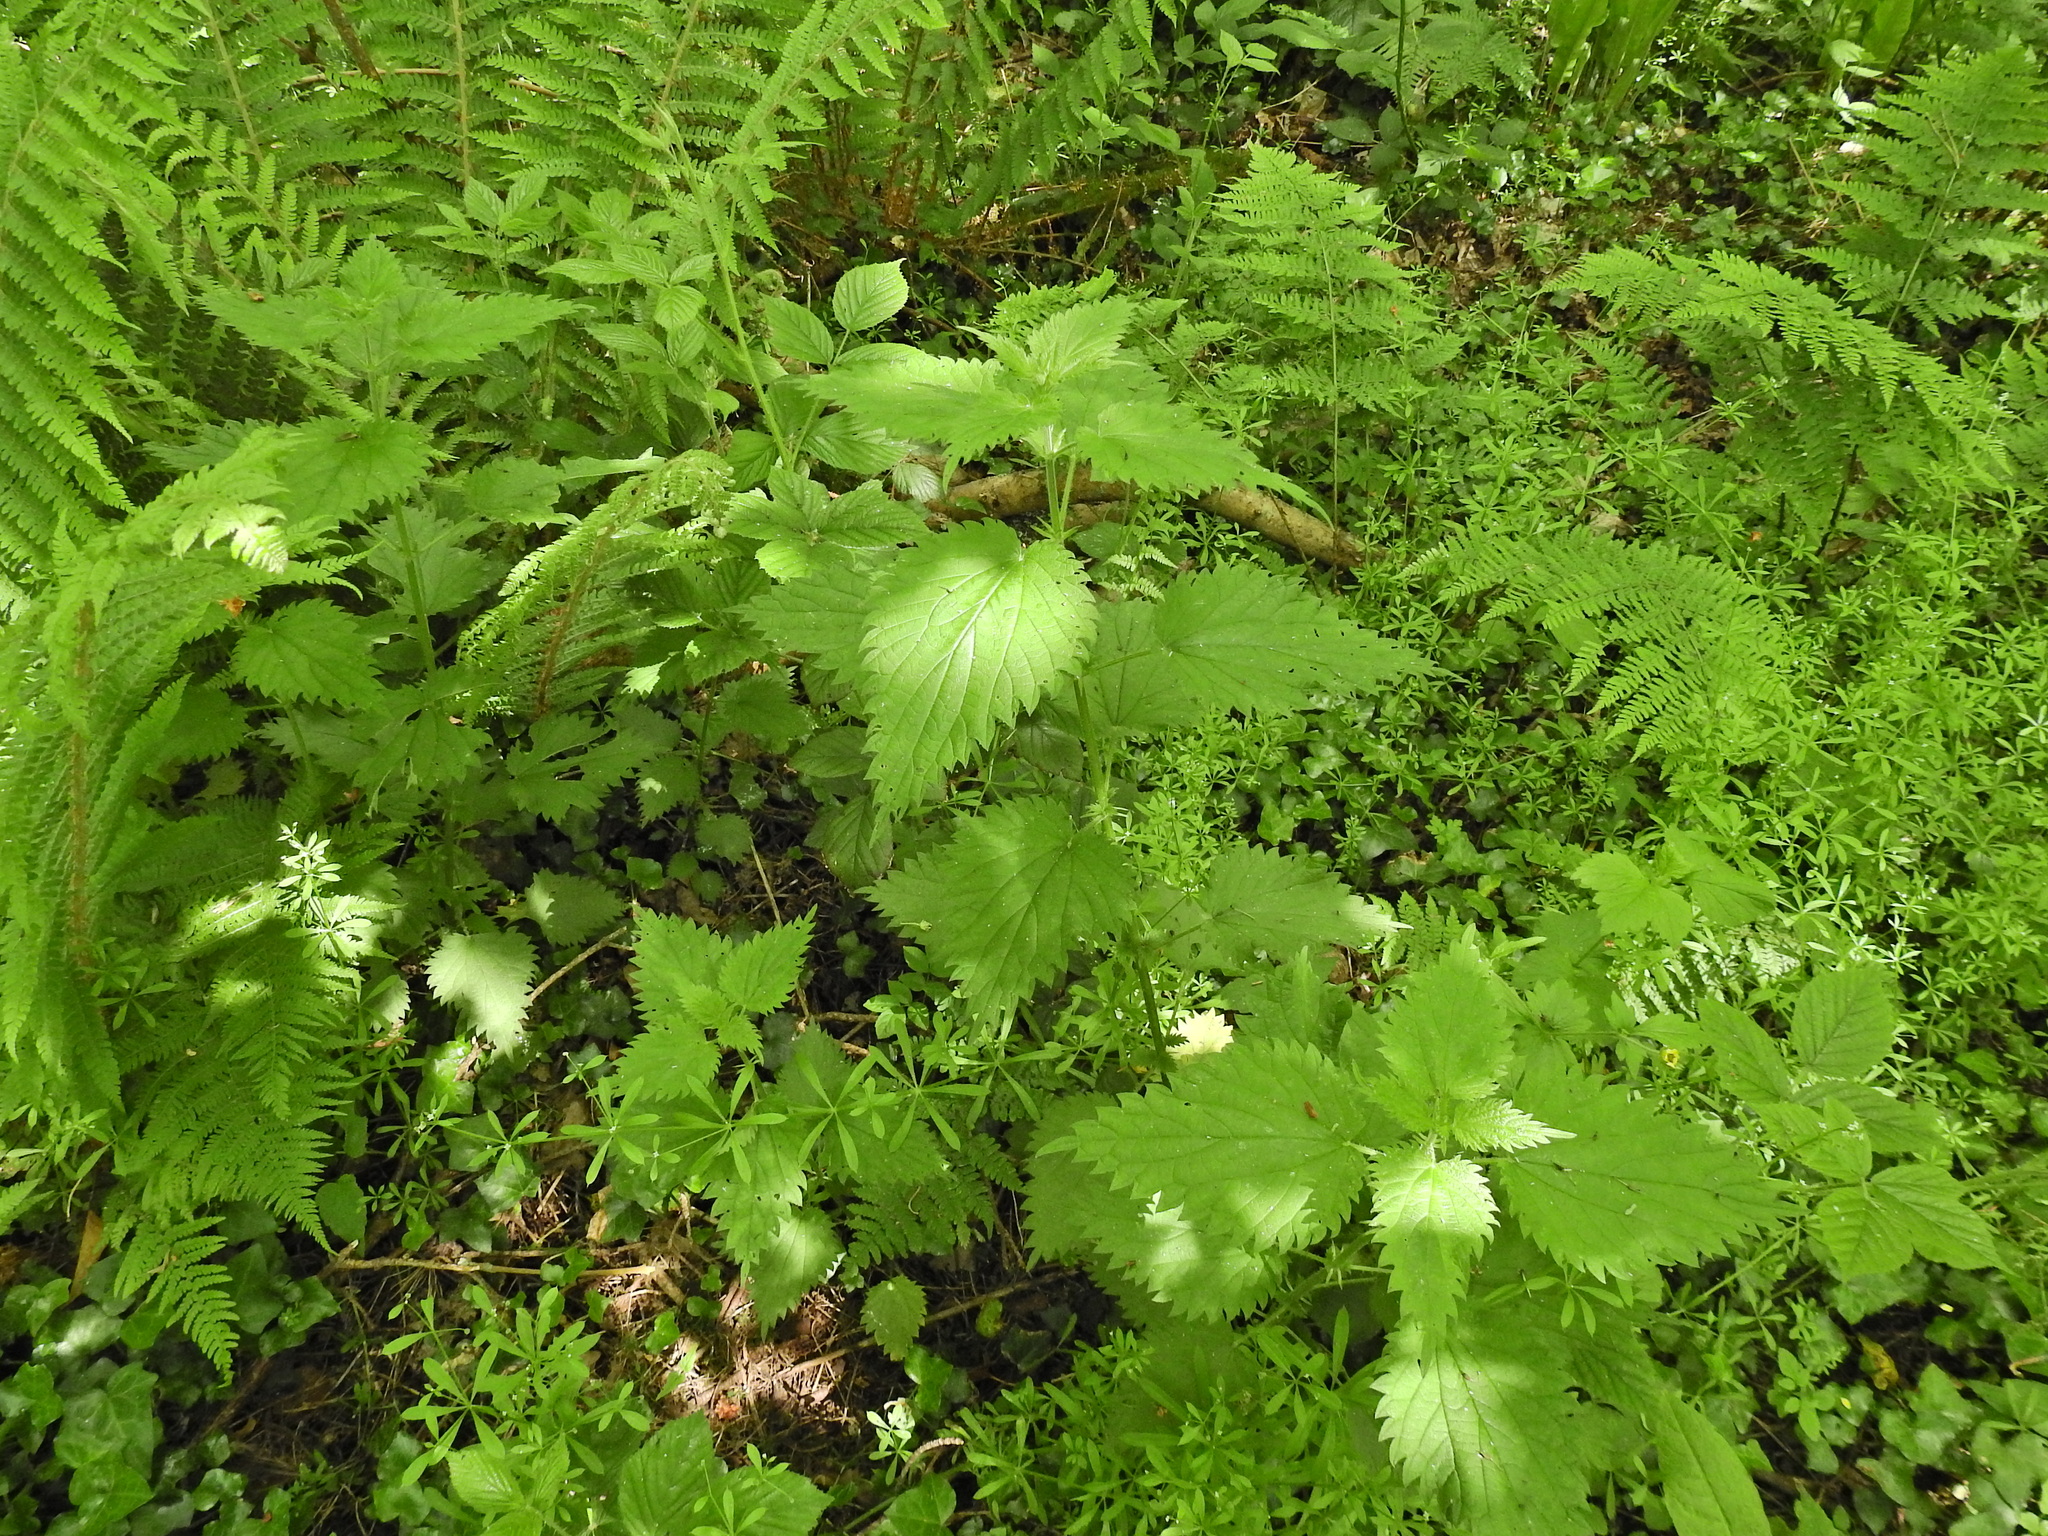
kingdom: Plantae
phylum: Tracheophyta
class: Magnoliopsida
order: Rosales
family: Urticaceae
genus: Urtica
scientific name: Urtica dioica
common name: Common nettle
